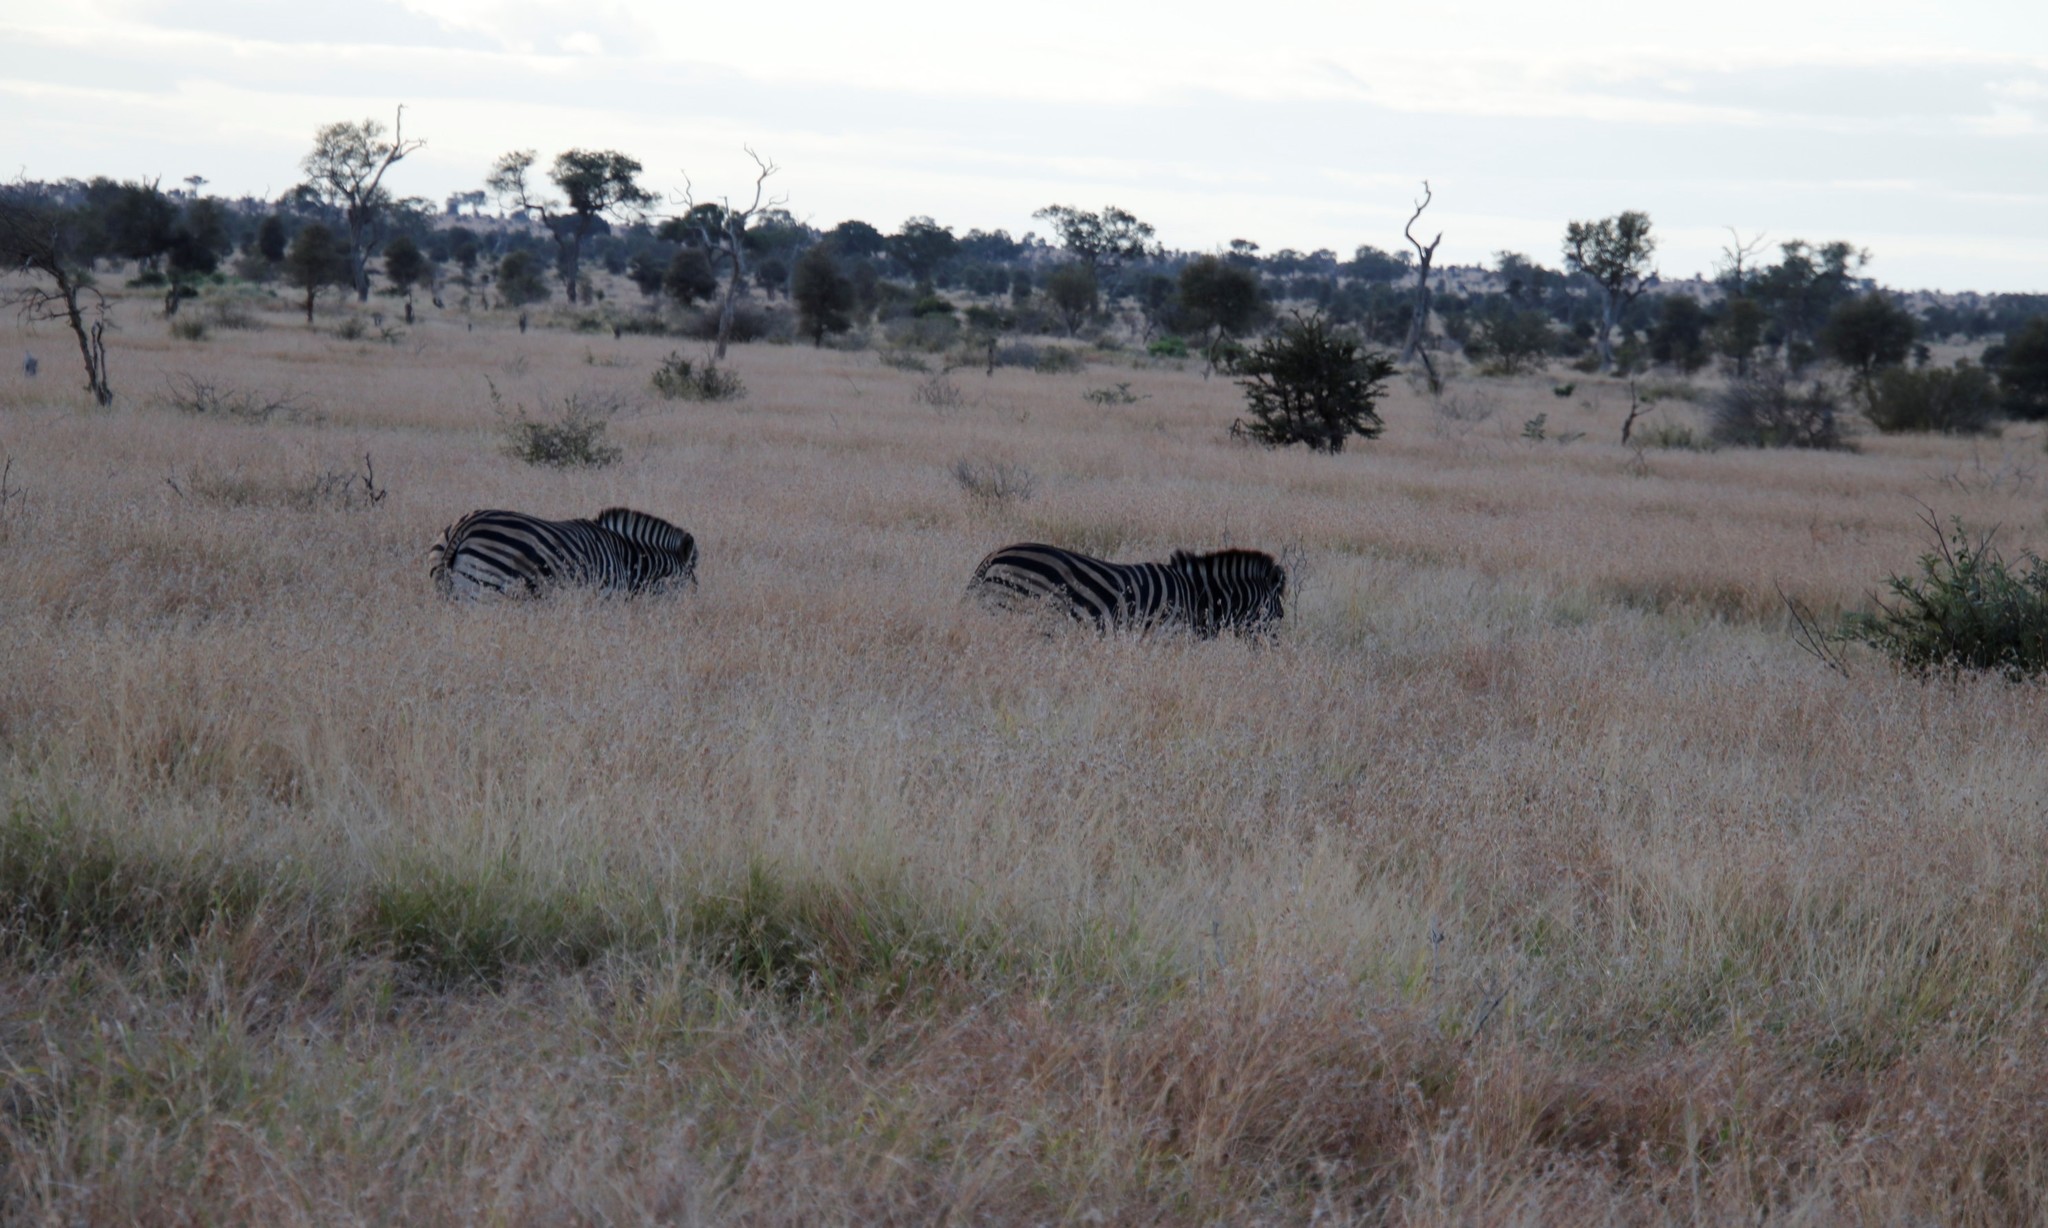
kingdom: Animalia
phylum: Chordata
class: Mammalia
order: Perissodactyla
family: Equidae
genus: Equus
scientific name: Equus quagga
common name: Plains zebra
